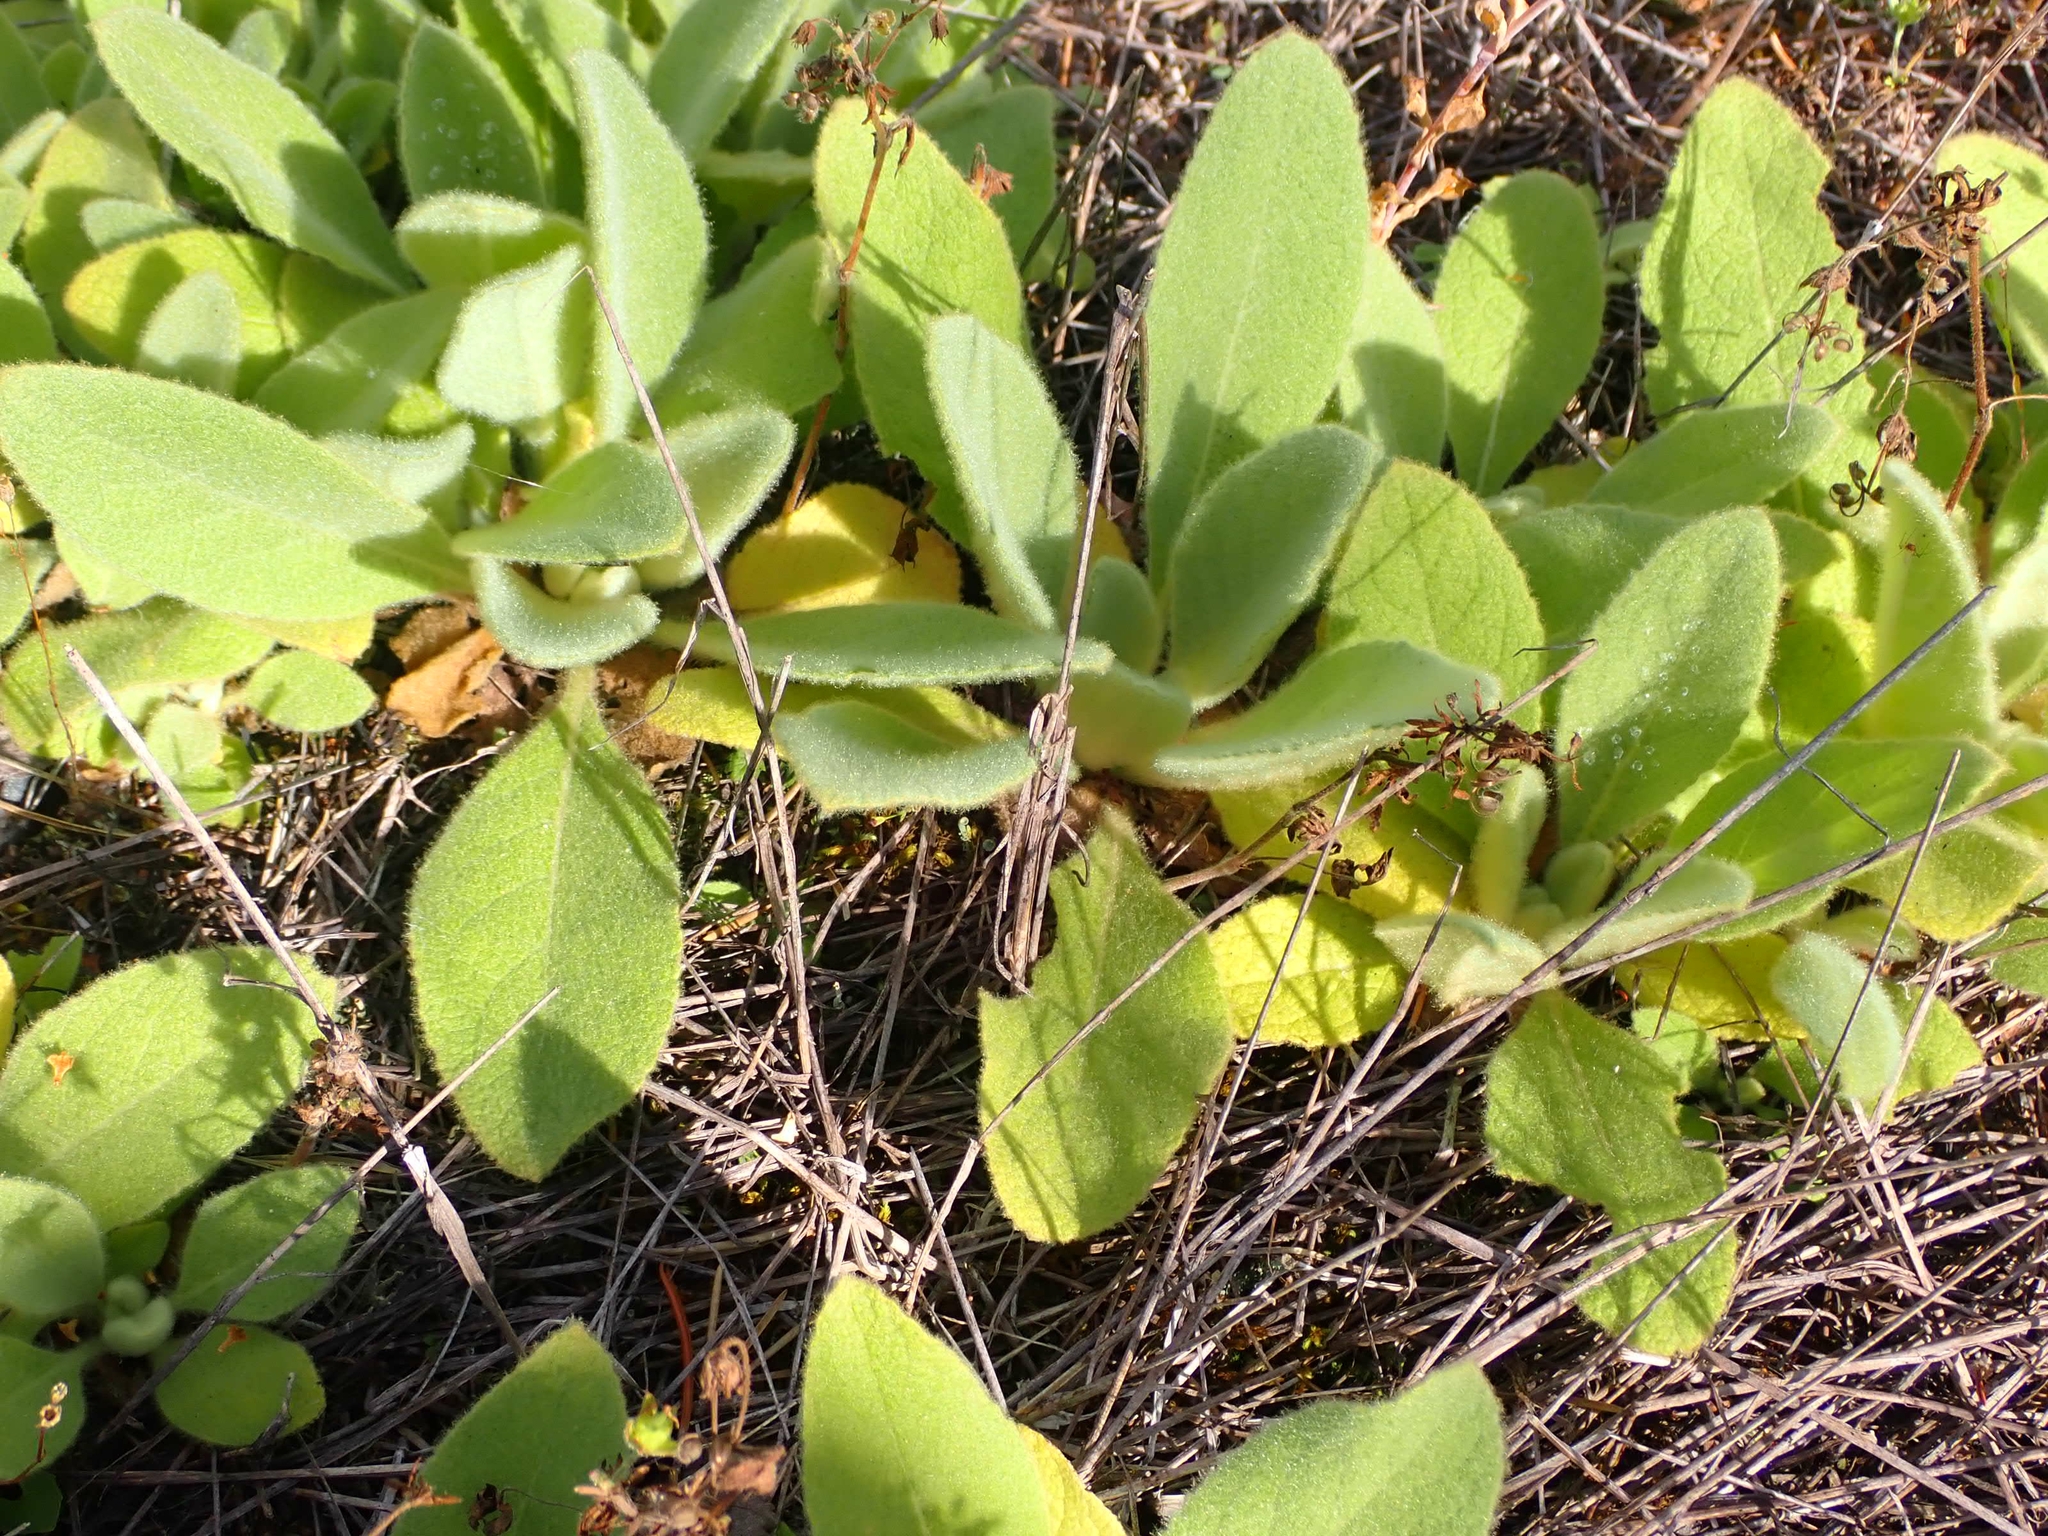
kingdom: Plantae
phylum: Tracheophyta
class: Magnoliopsida
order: Lamiales
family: Scrophulariaceae
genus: Verbascum
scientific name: Verbascum thapsus
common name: Common mullein
